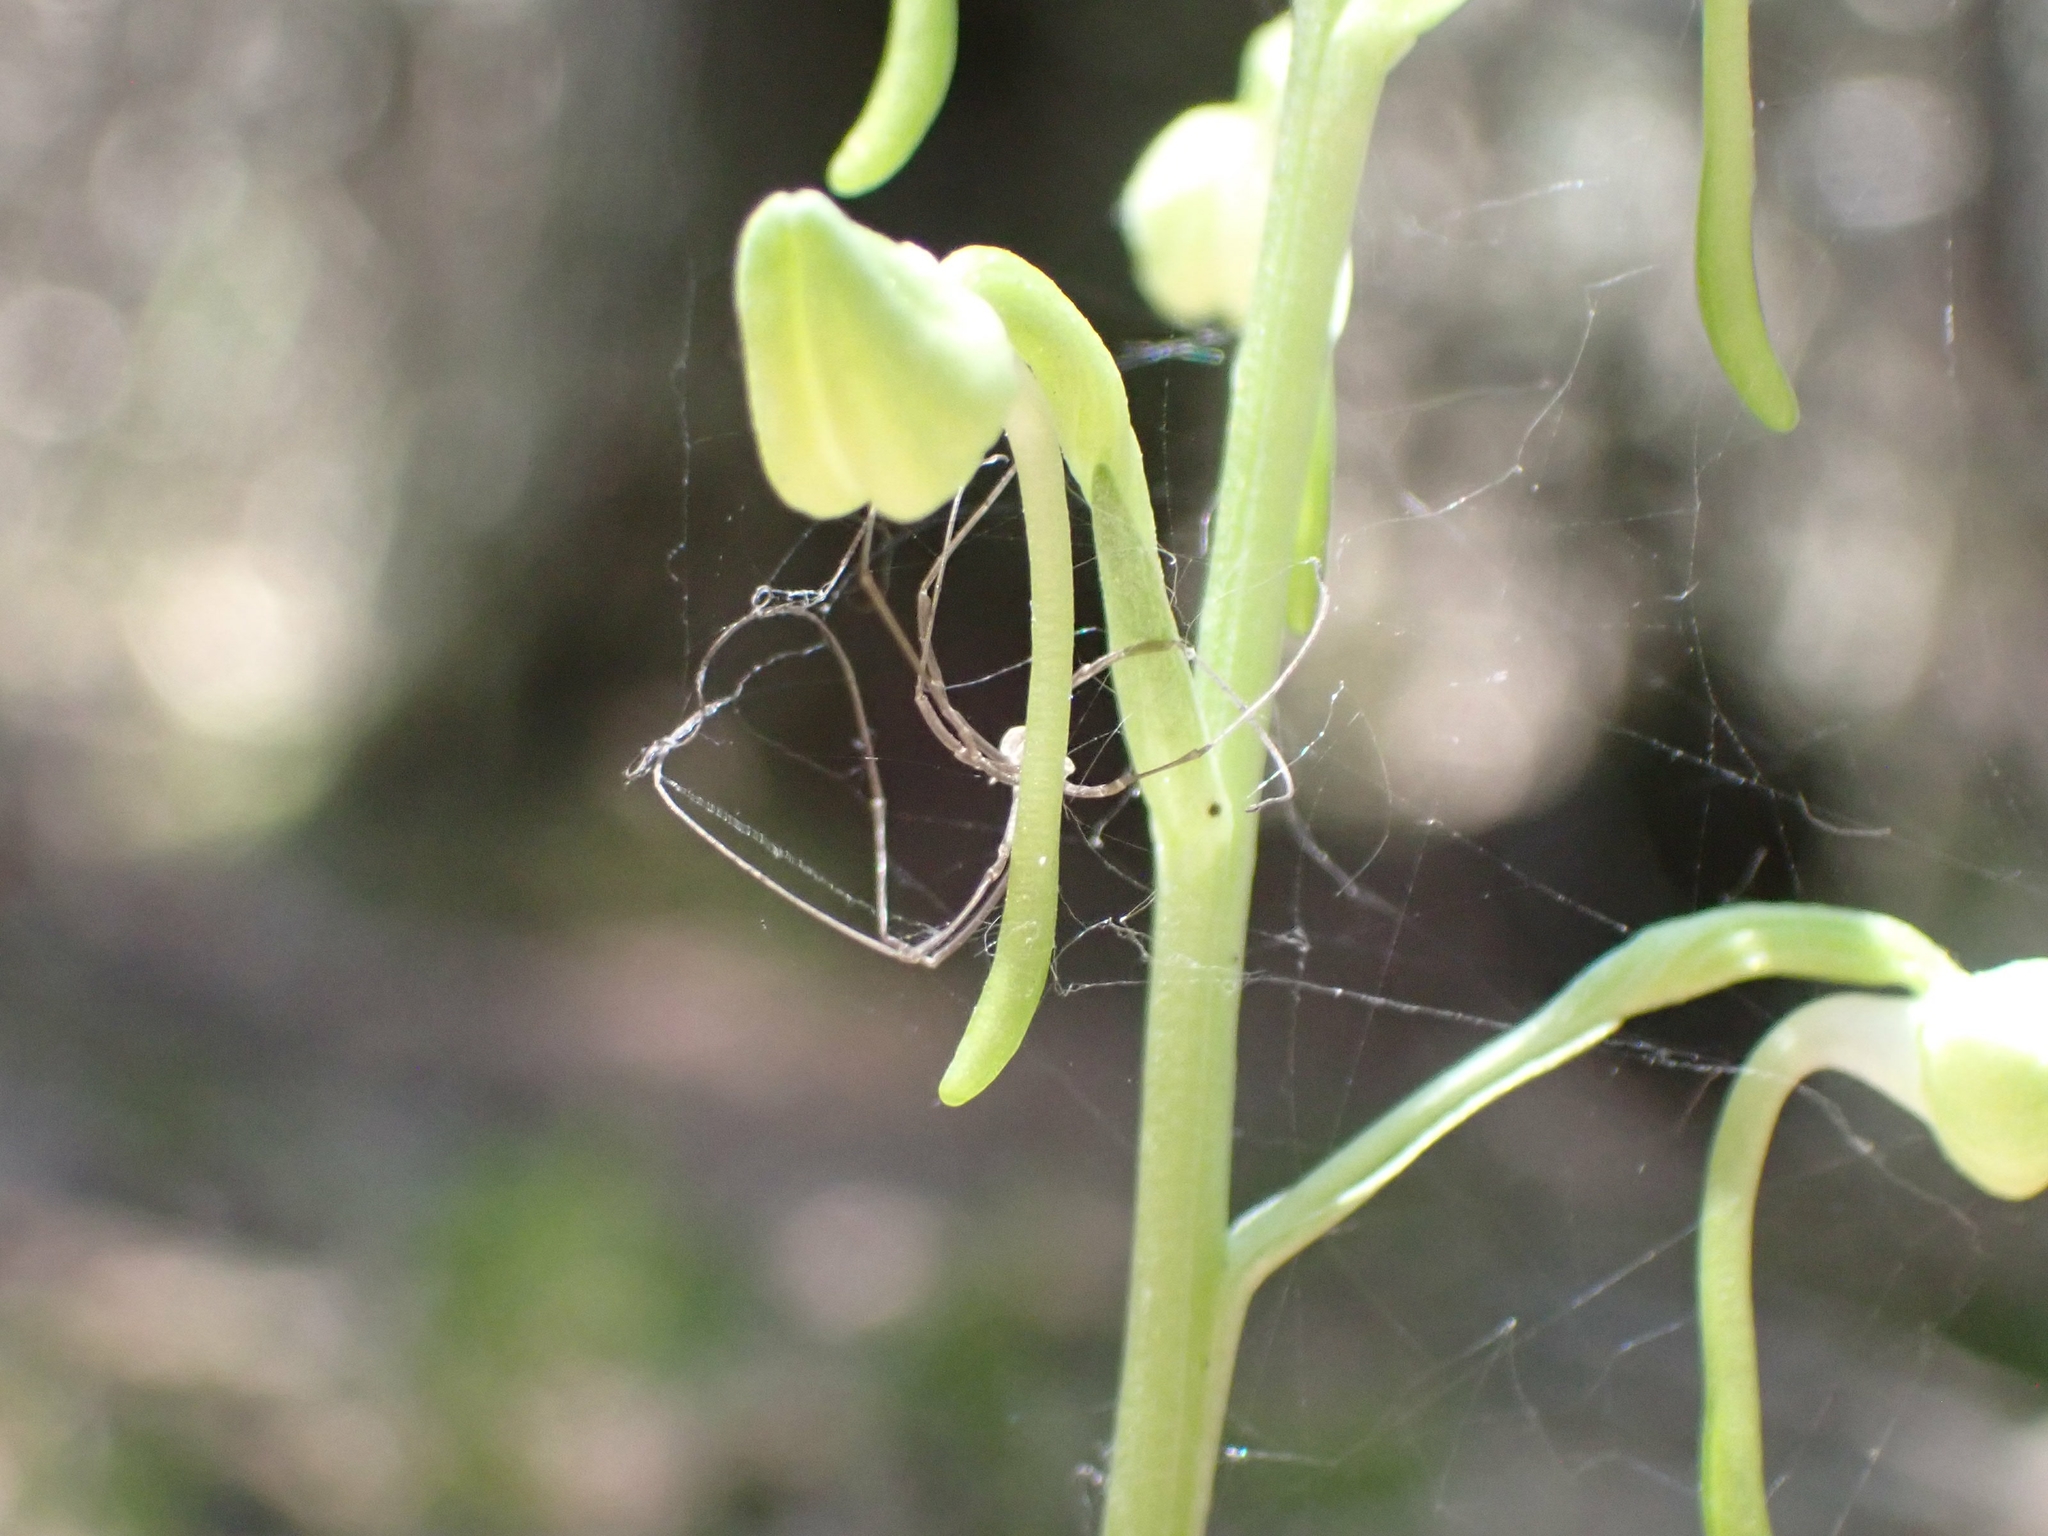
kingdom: Plantae
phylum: Tracheophyta
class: Liliopsida
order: Asparagales
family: Orchidaceae
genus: Platanthera
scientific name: Platanthera orbiculata
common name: Large round-leaved orchid
